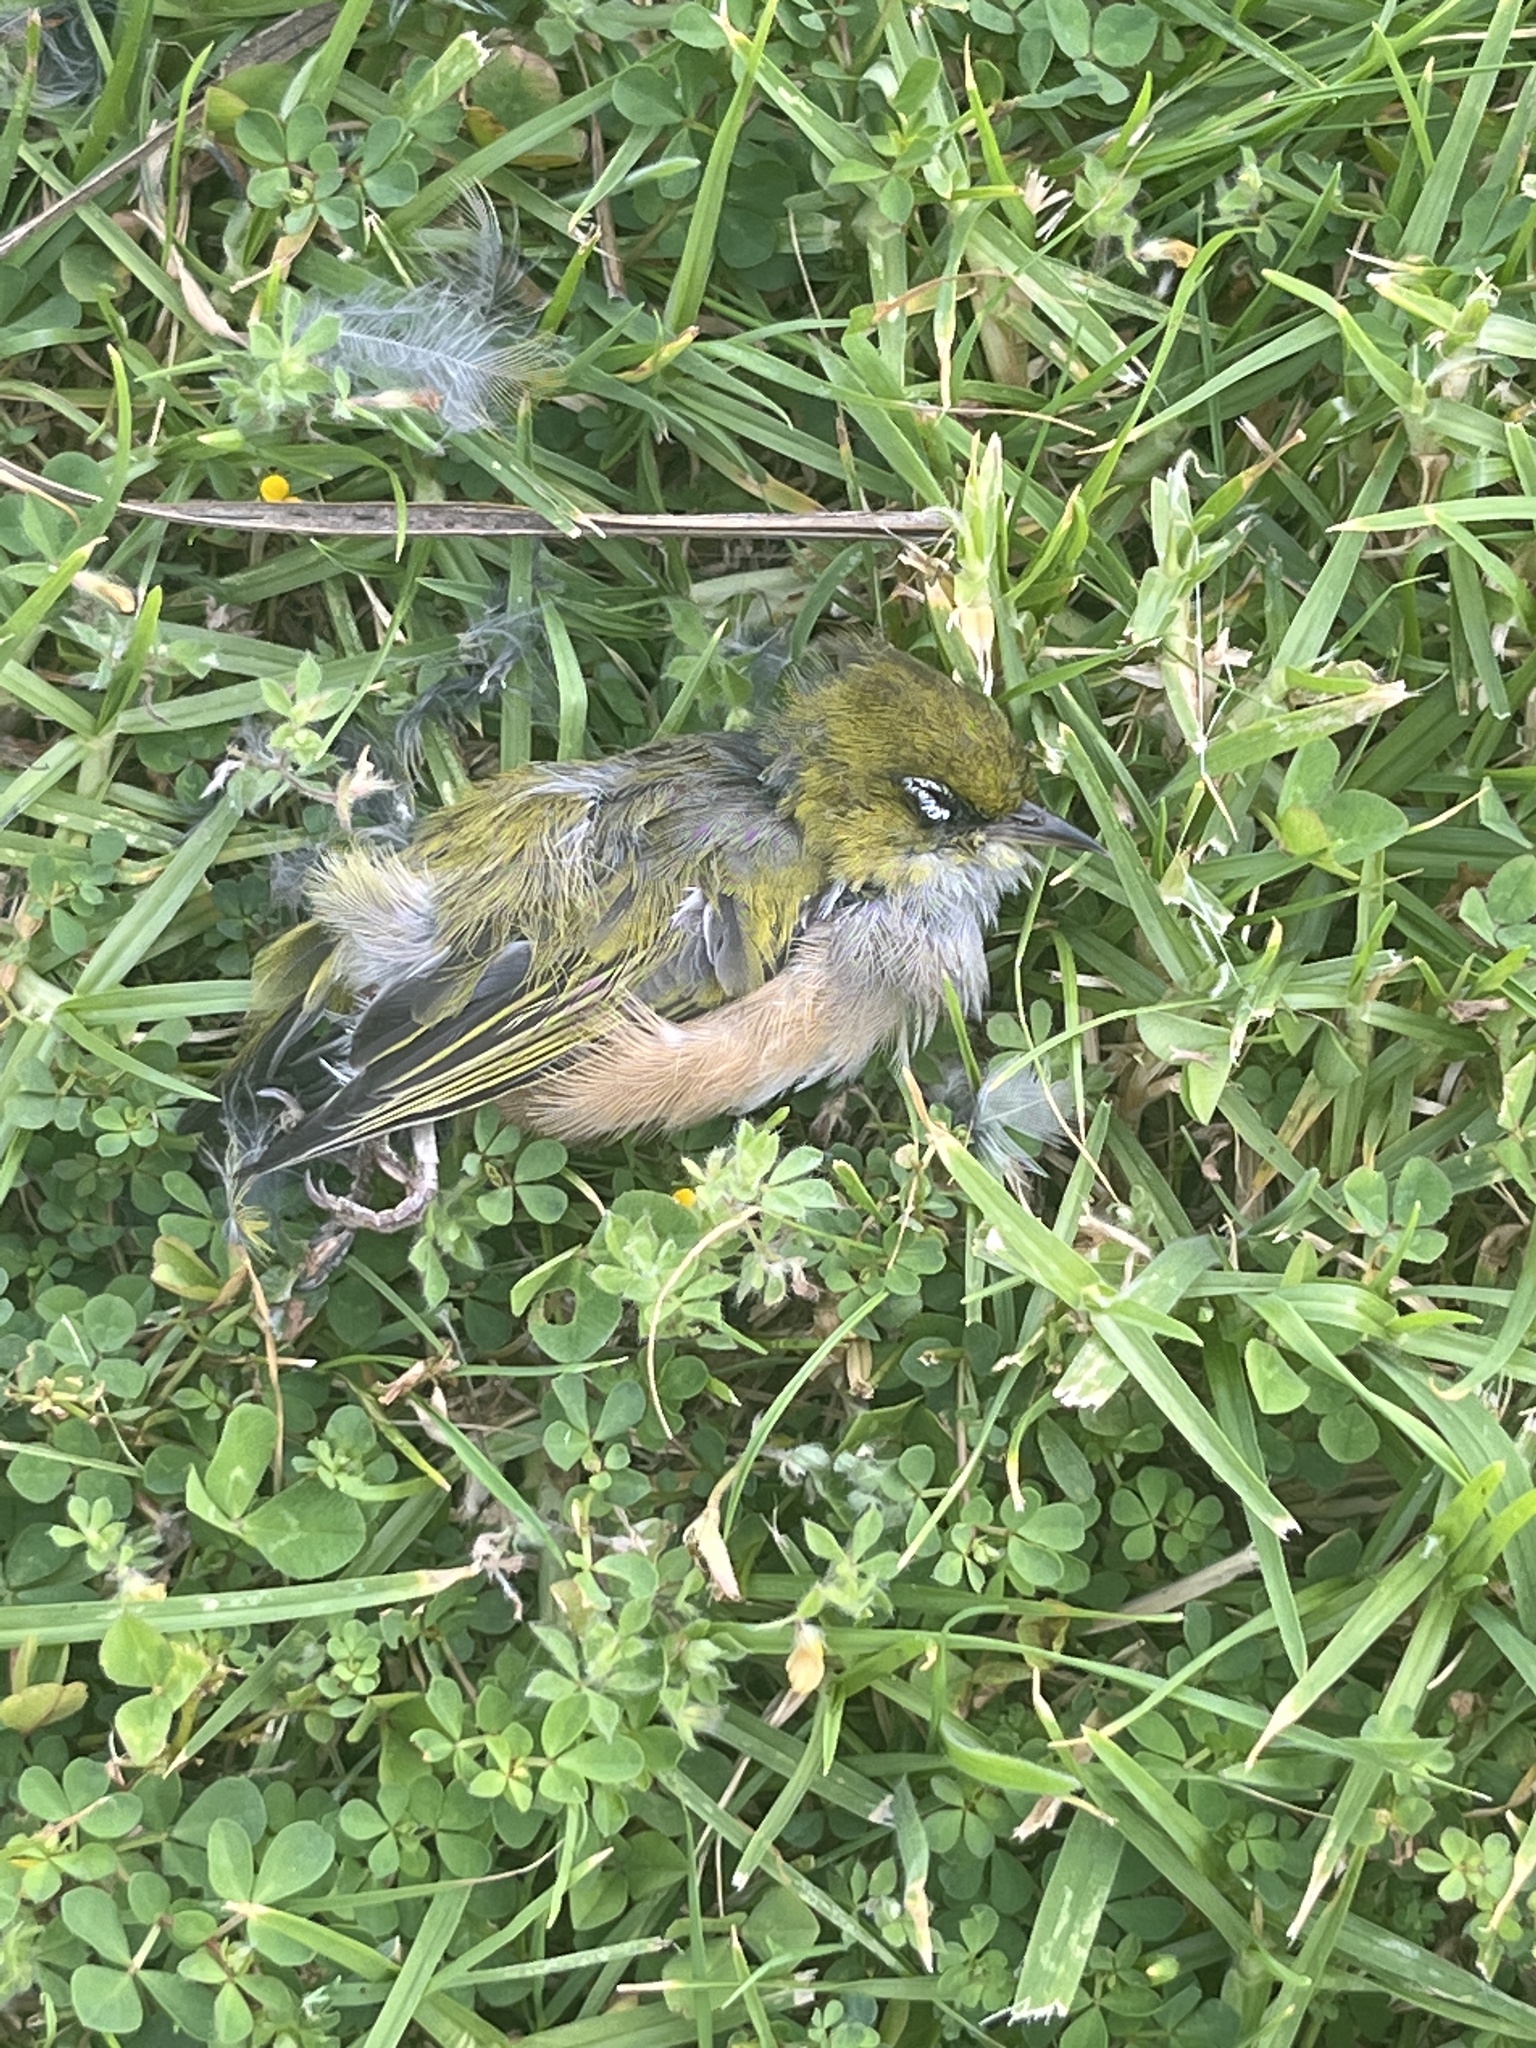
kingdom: Animalia
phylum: Chordata
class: Aves
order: Passeriformes
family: Zosteropidae
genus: Zosterops
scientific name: Zosterops lateralis
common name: Silvereye
